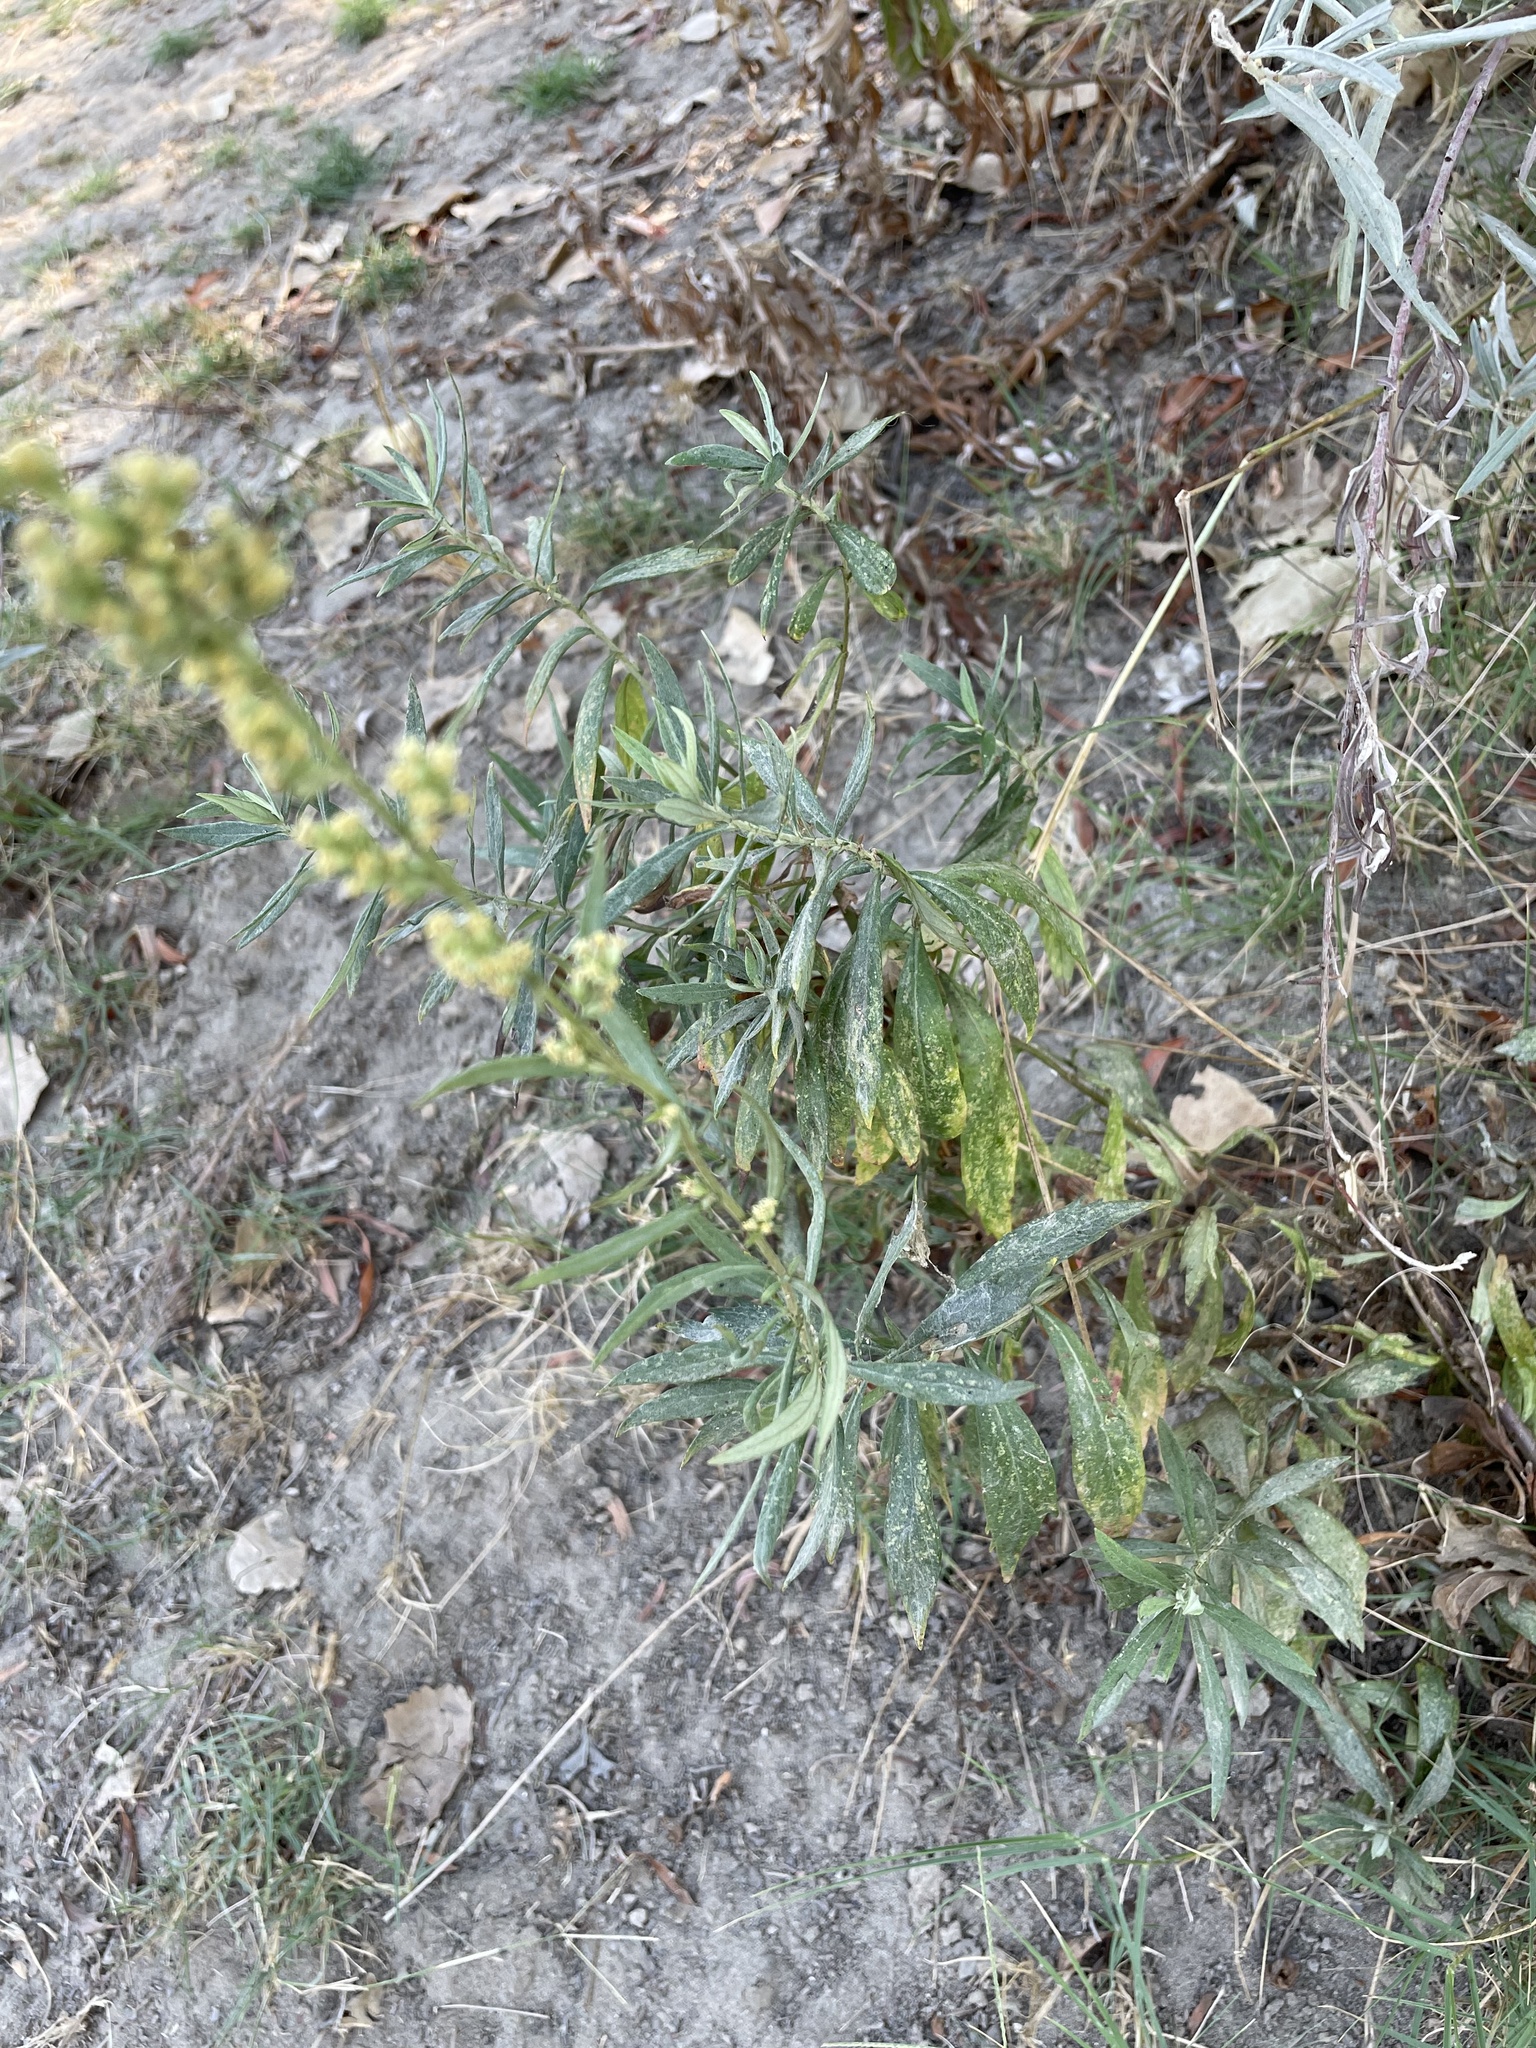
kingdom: Plantae
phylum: Tracheophyta
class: Magnoliopsida
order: Asterales
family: Asteraceae
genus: Artemisia
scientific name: Artemisia douglasiana
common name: Northwest mugwort
